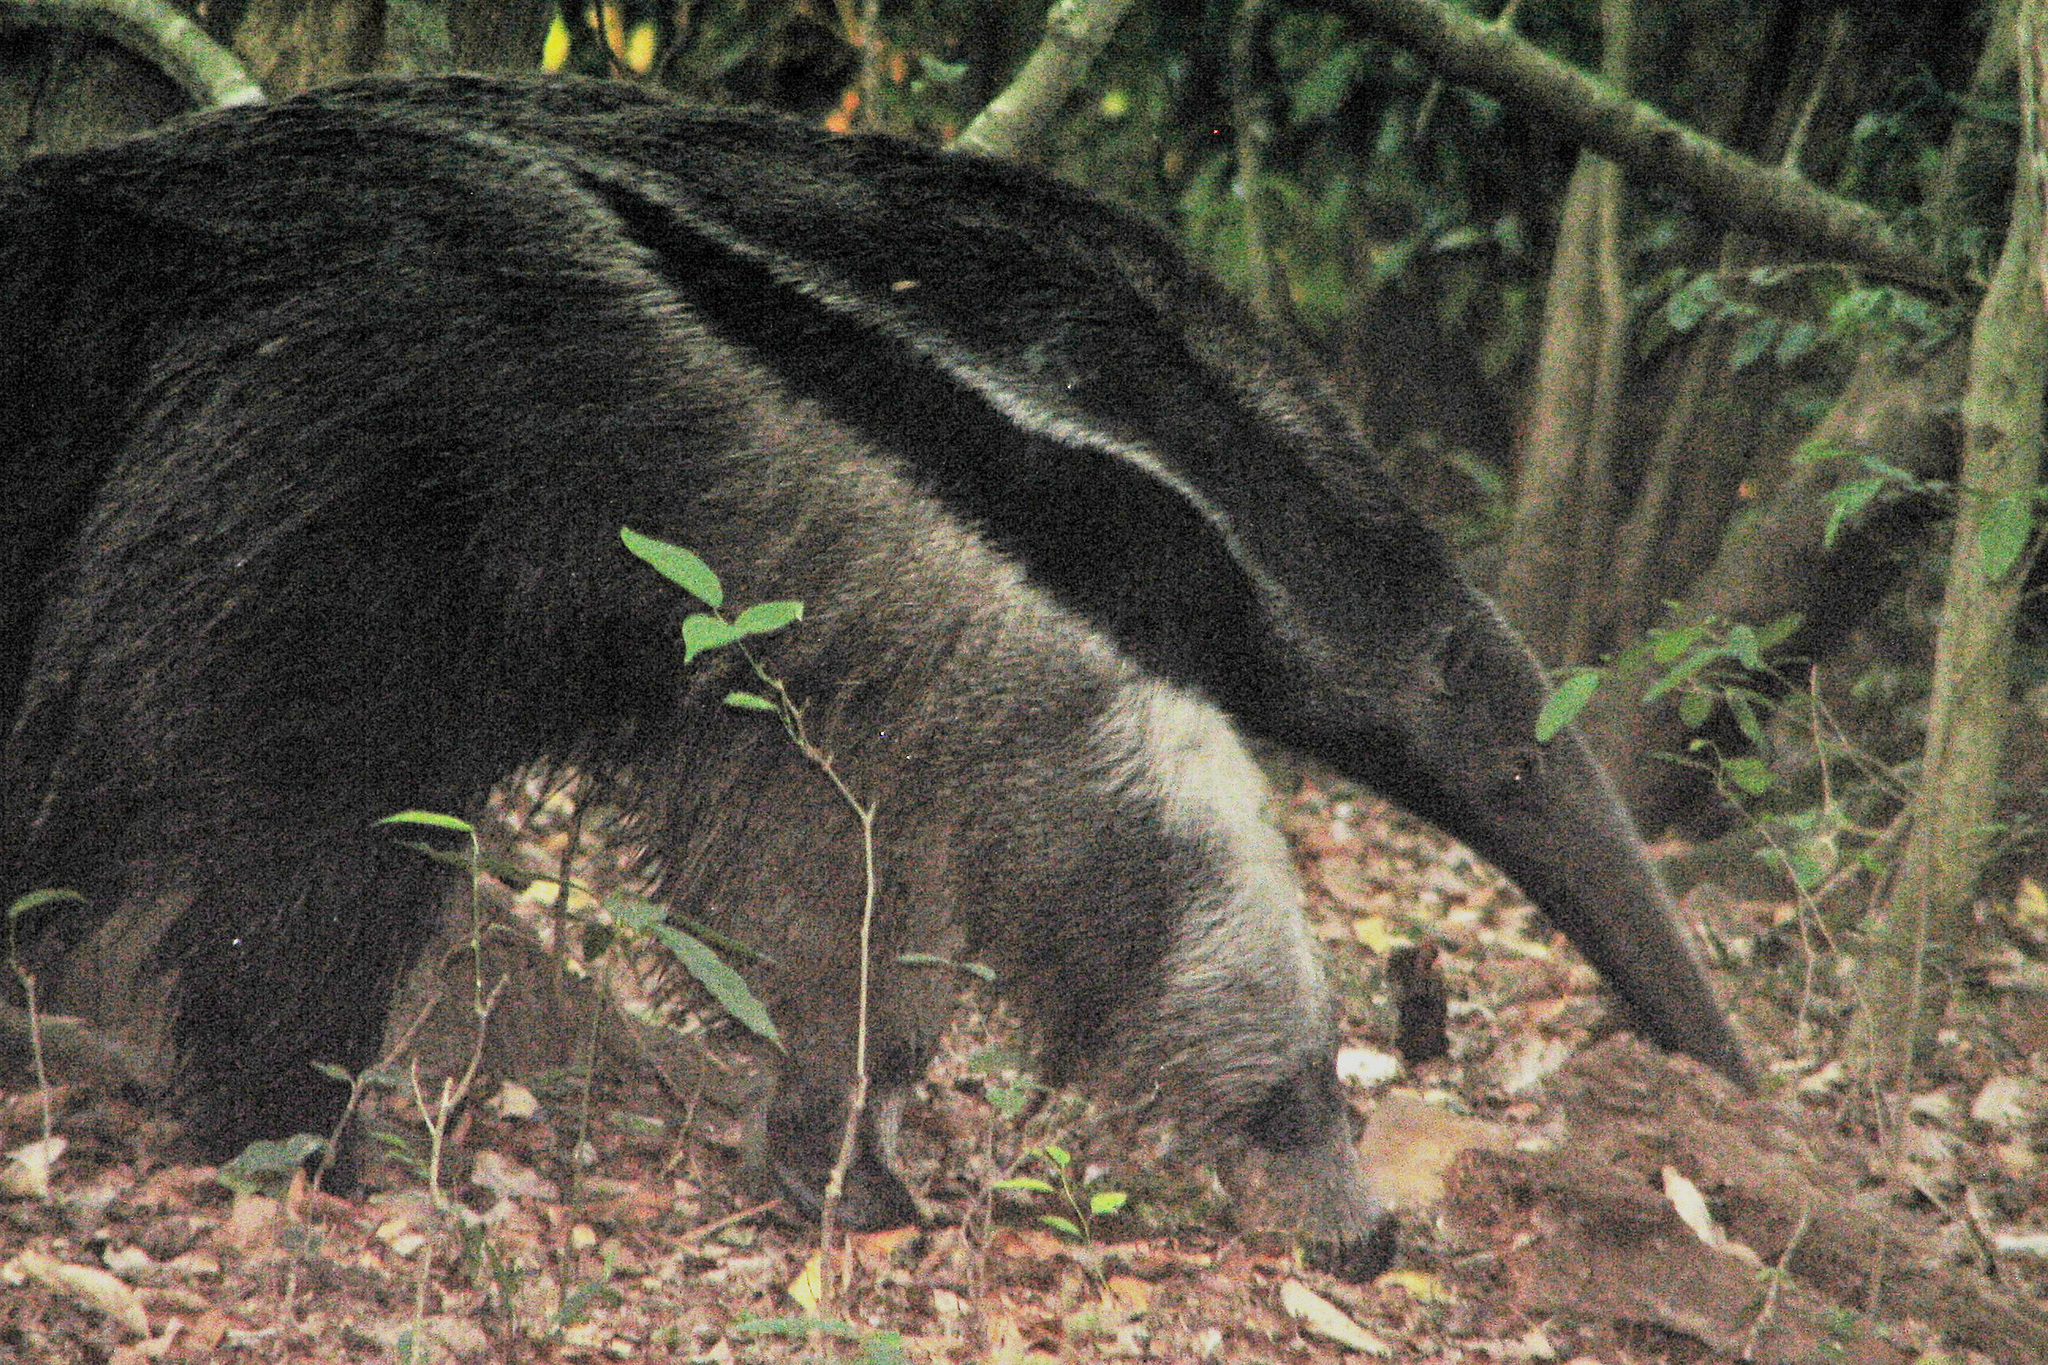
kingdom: Animalia
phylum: Chordata
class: Mammalia
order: Pilosa
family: Myrmecophagidae
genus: Myrmecophaga
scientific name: Myrmecophaga tridactyla
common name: Giant anteater
